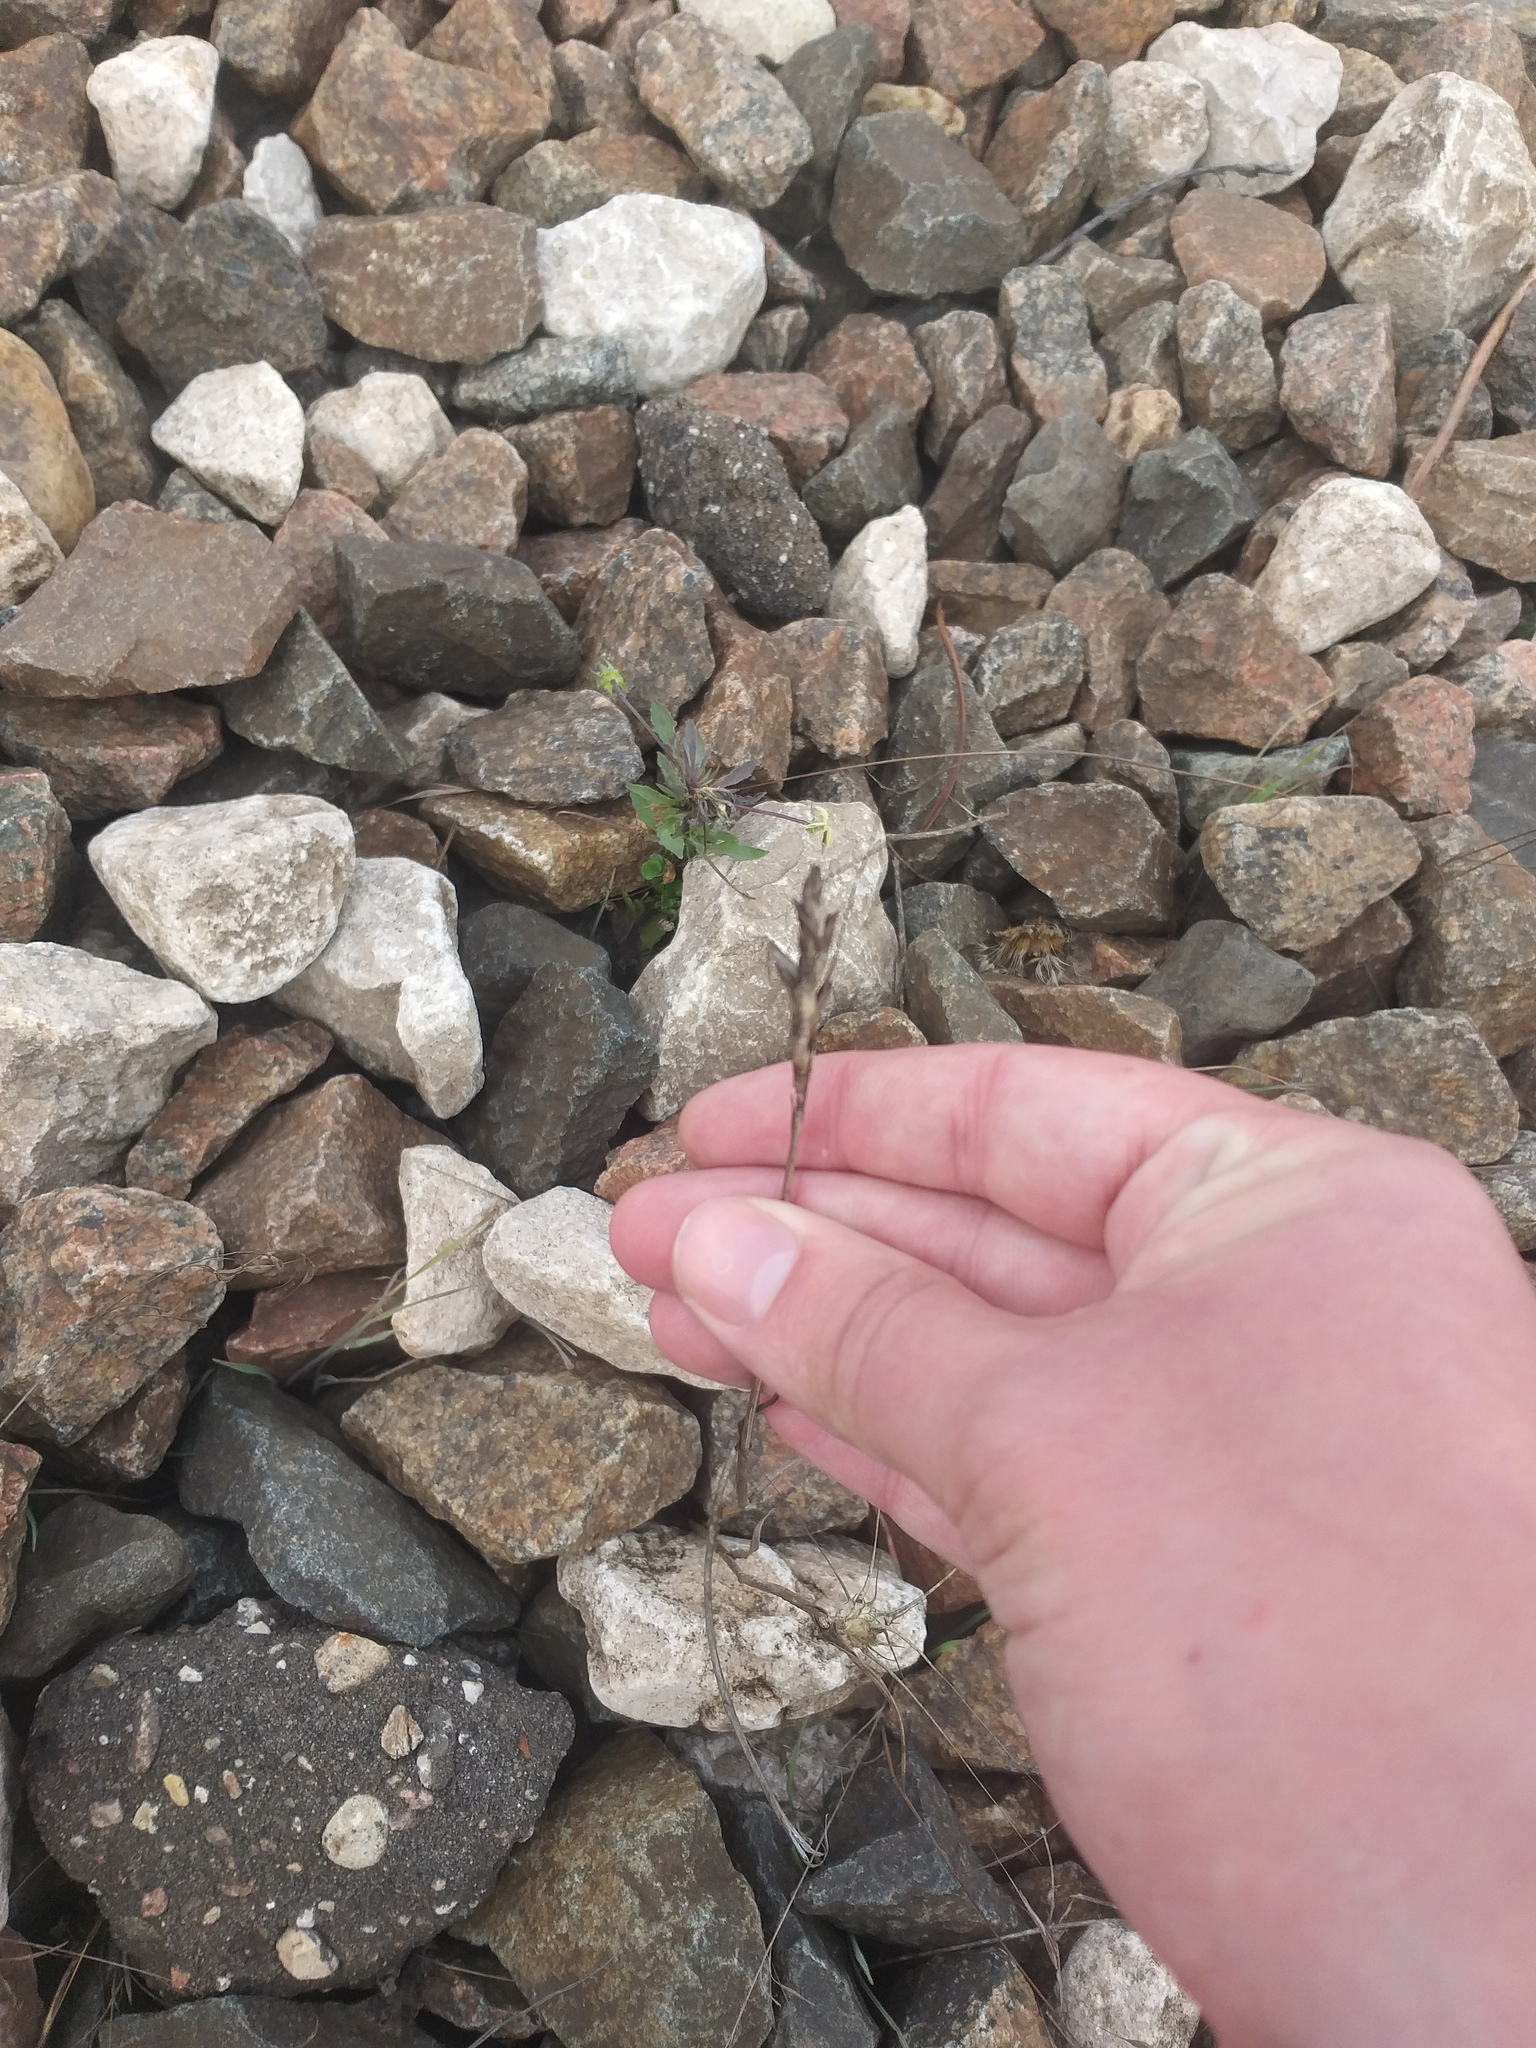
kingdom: Plantae
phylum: Tracheophyta
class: Liliopsida
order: Poales
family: Poaceae
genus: Triticum
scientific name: Triticum aestivum
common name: Common wheat
